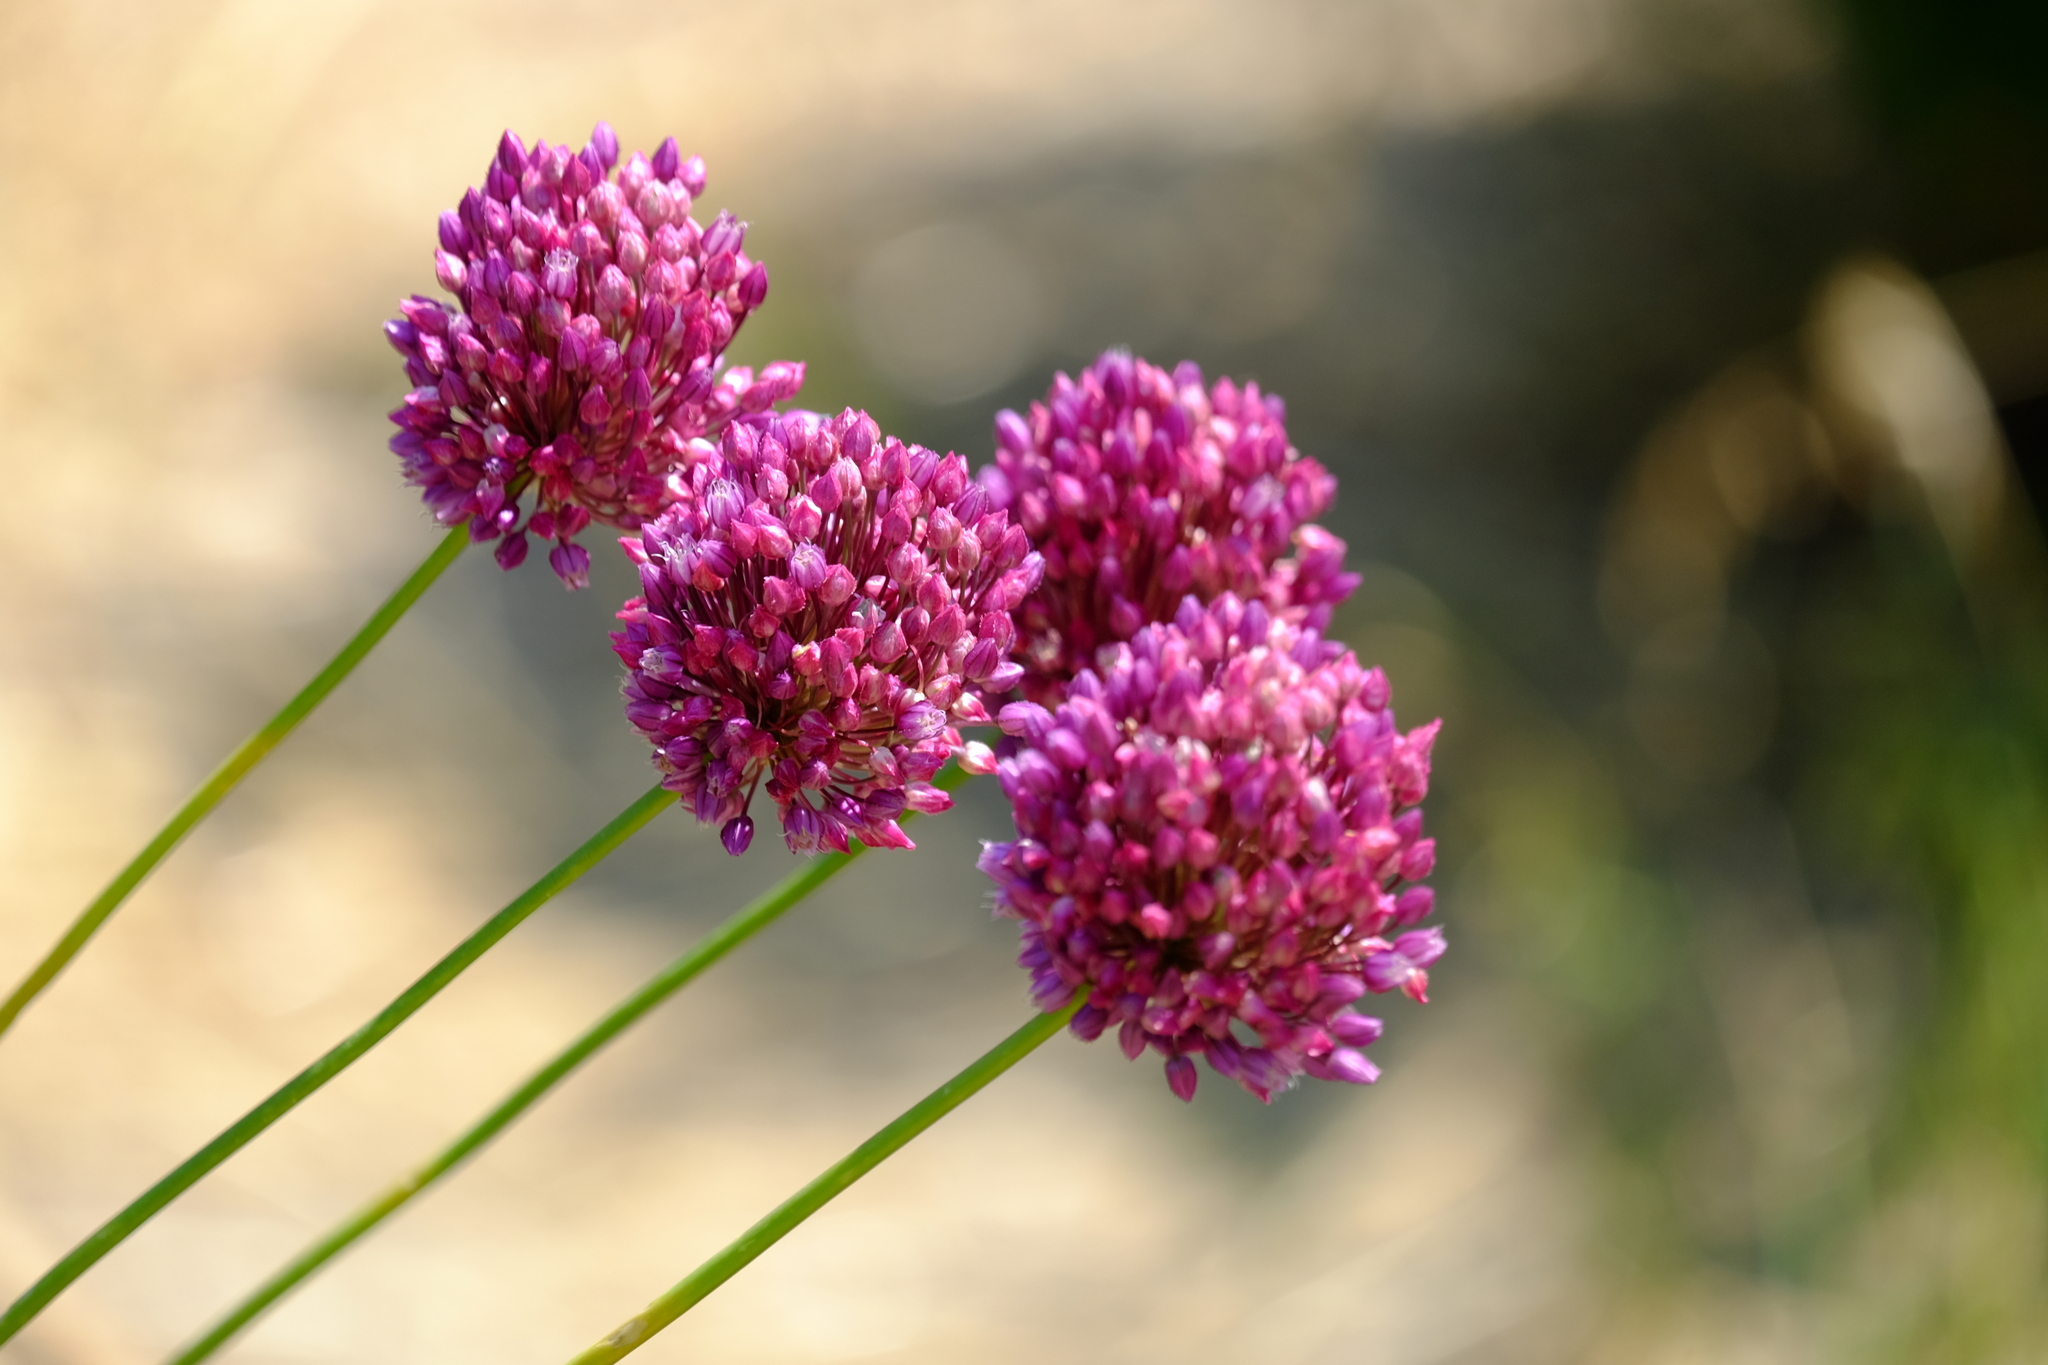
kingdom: Plantae
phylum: Tracheophyta
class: Liliopsida
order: Asparagales
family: Amaryllidaceae
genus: Allium
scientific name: Allium rotundum
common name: Sand leek
